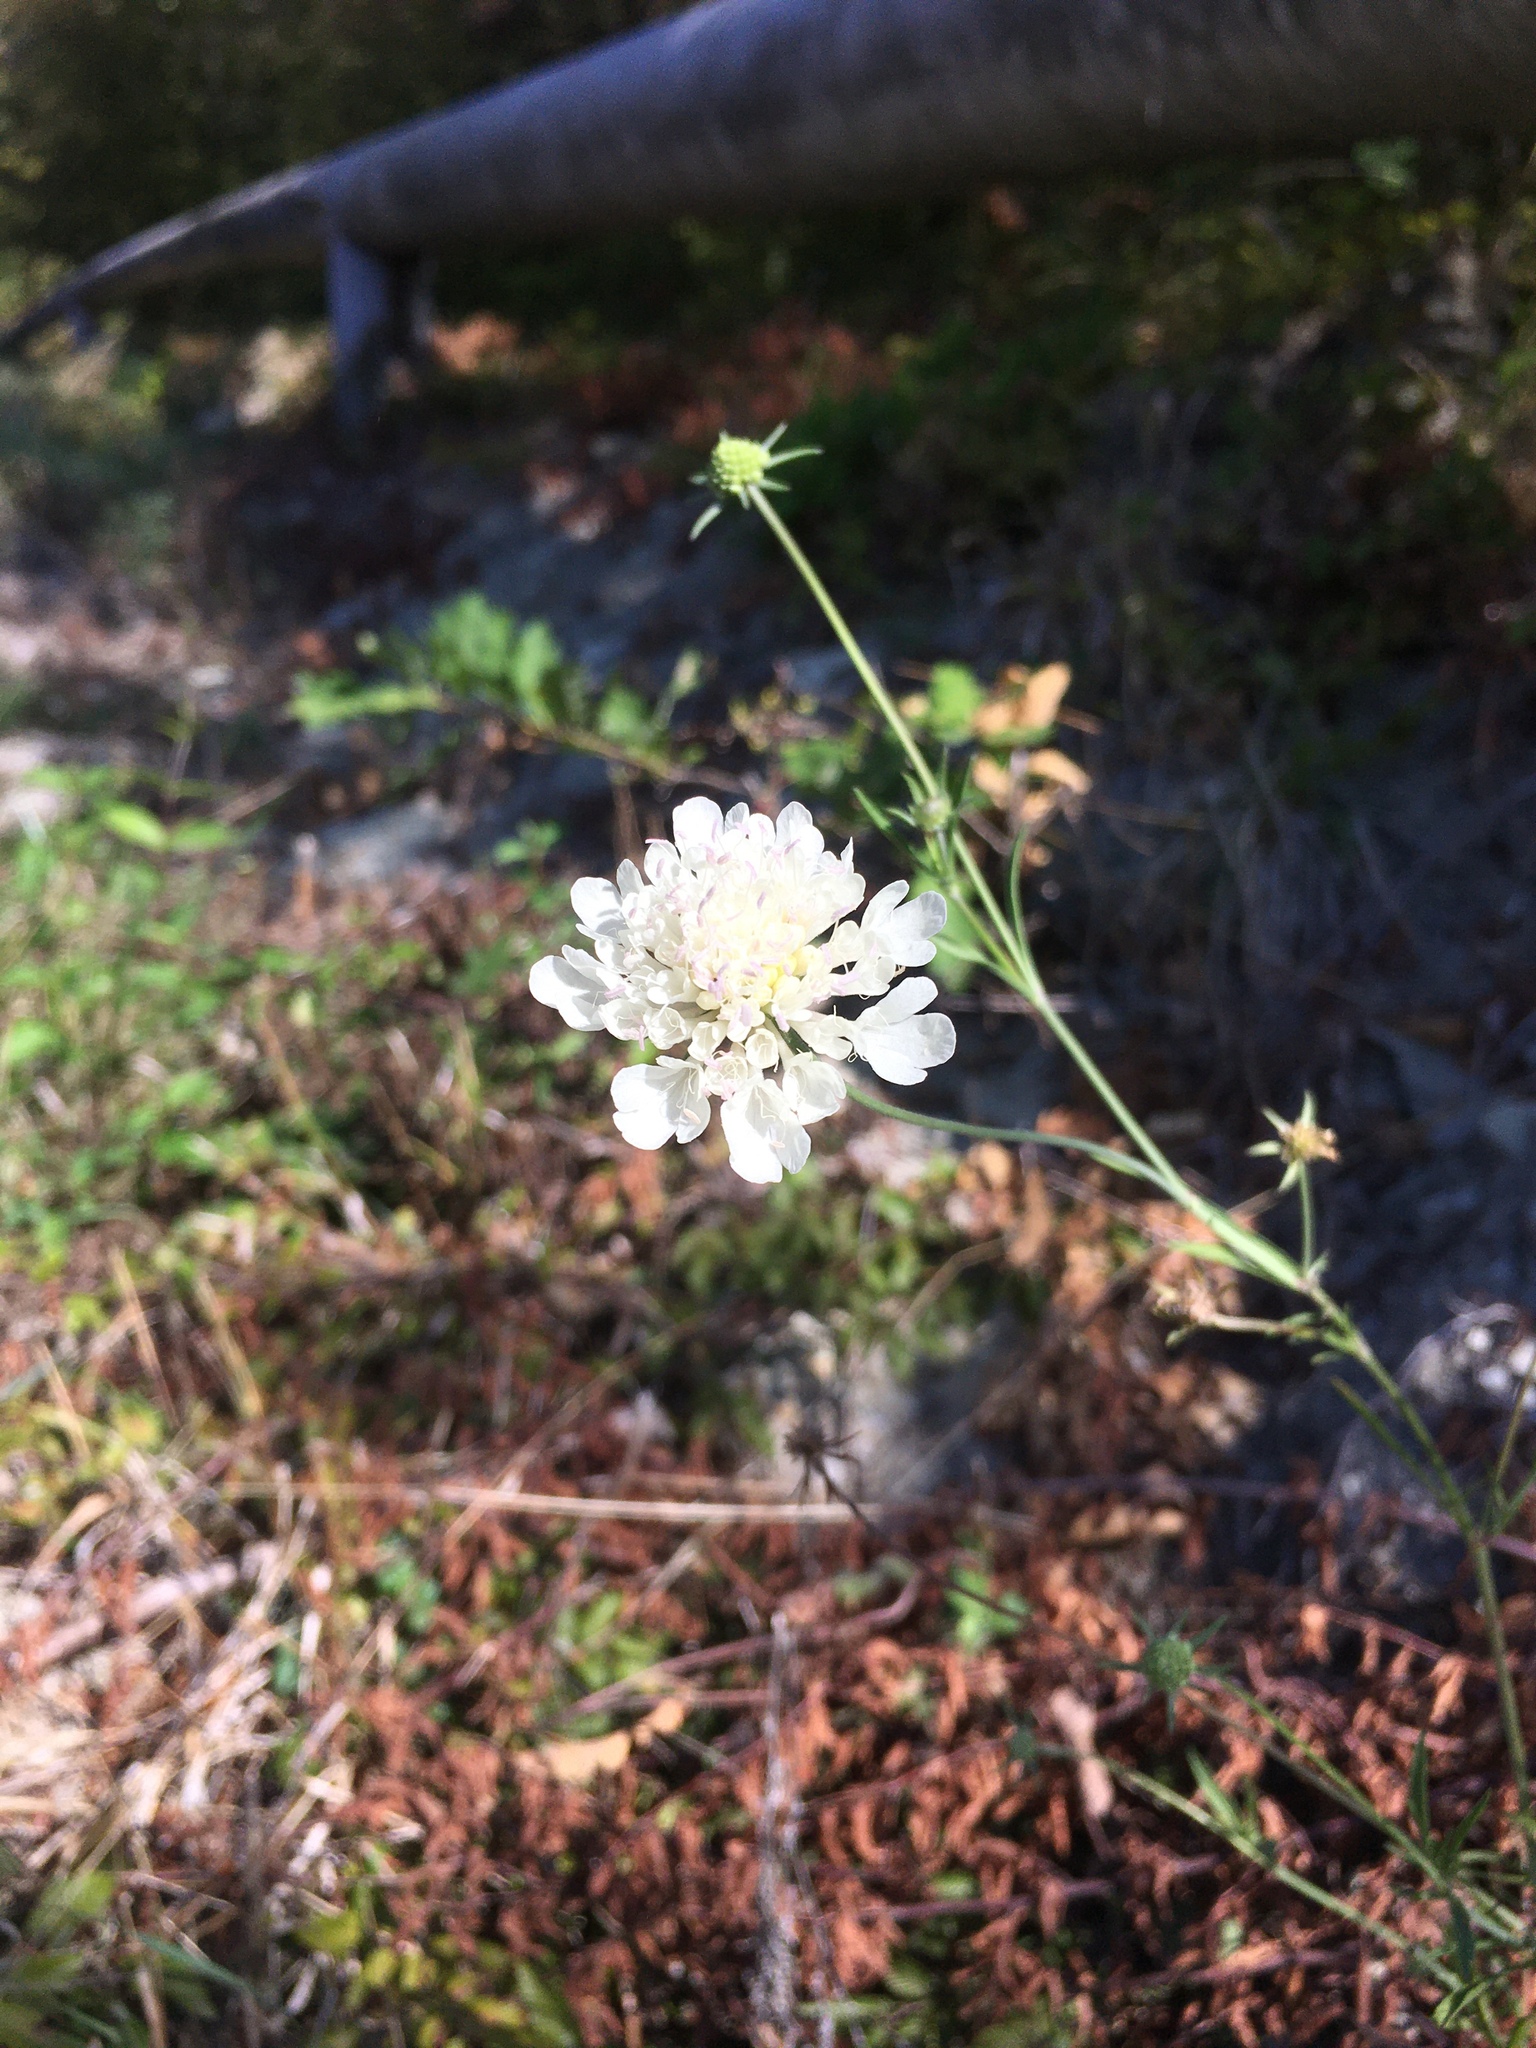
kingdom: Plantae
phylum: Tracheophyta
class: Magnoliopsida
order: Dipsacales
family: Caprifoliaceae
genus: Scabiosa
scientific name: Scabiosa ochroleuca
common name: Cream pincushions
